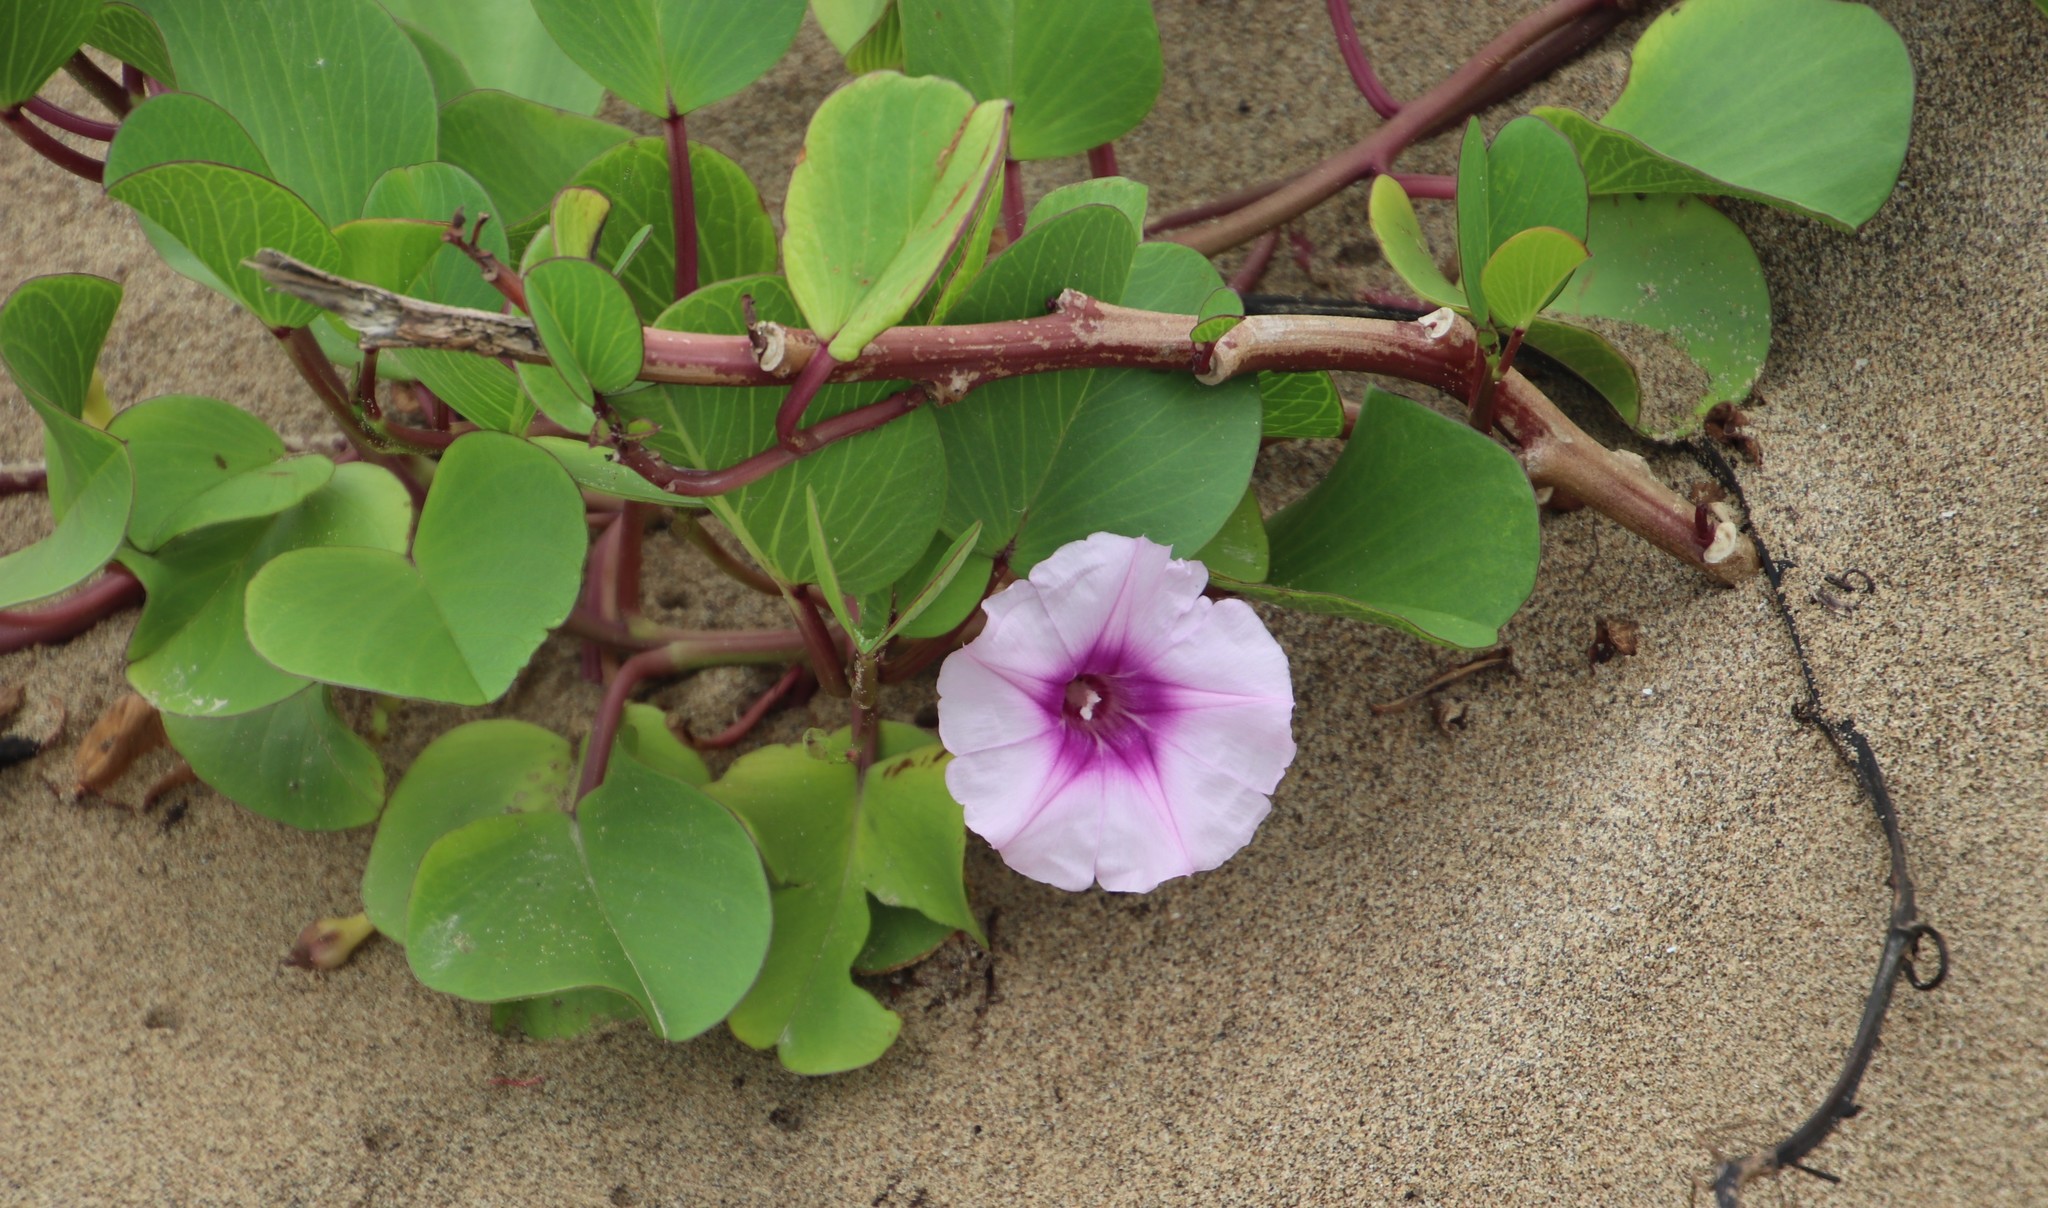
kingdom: Plantae
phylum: Tracheophyta
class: Magnoliopsida
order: Solanales
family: Convolvulaceae
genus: Ipomoea
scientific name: Ipomoea pes-caprae
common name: Beach morning glory
